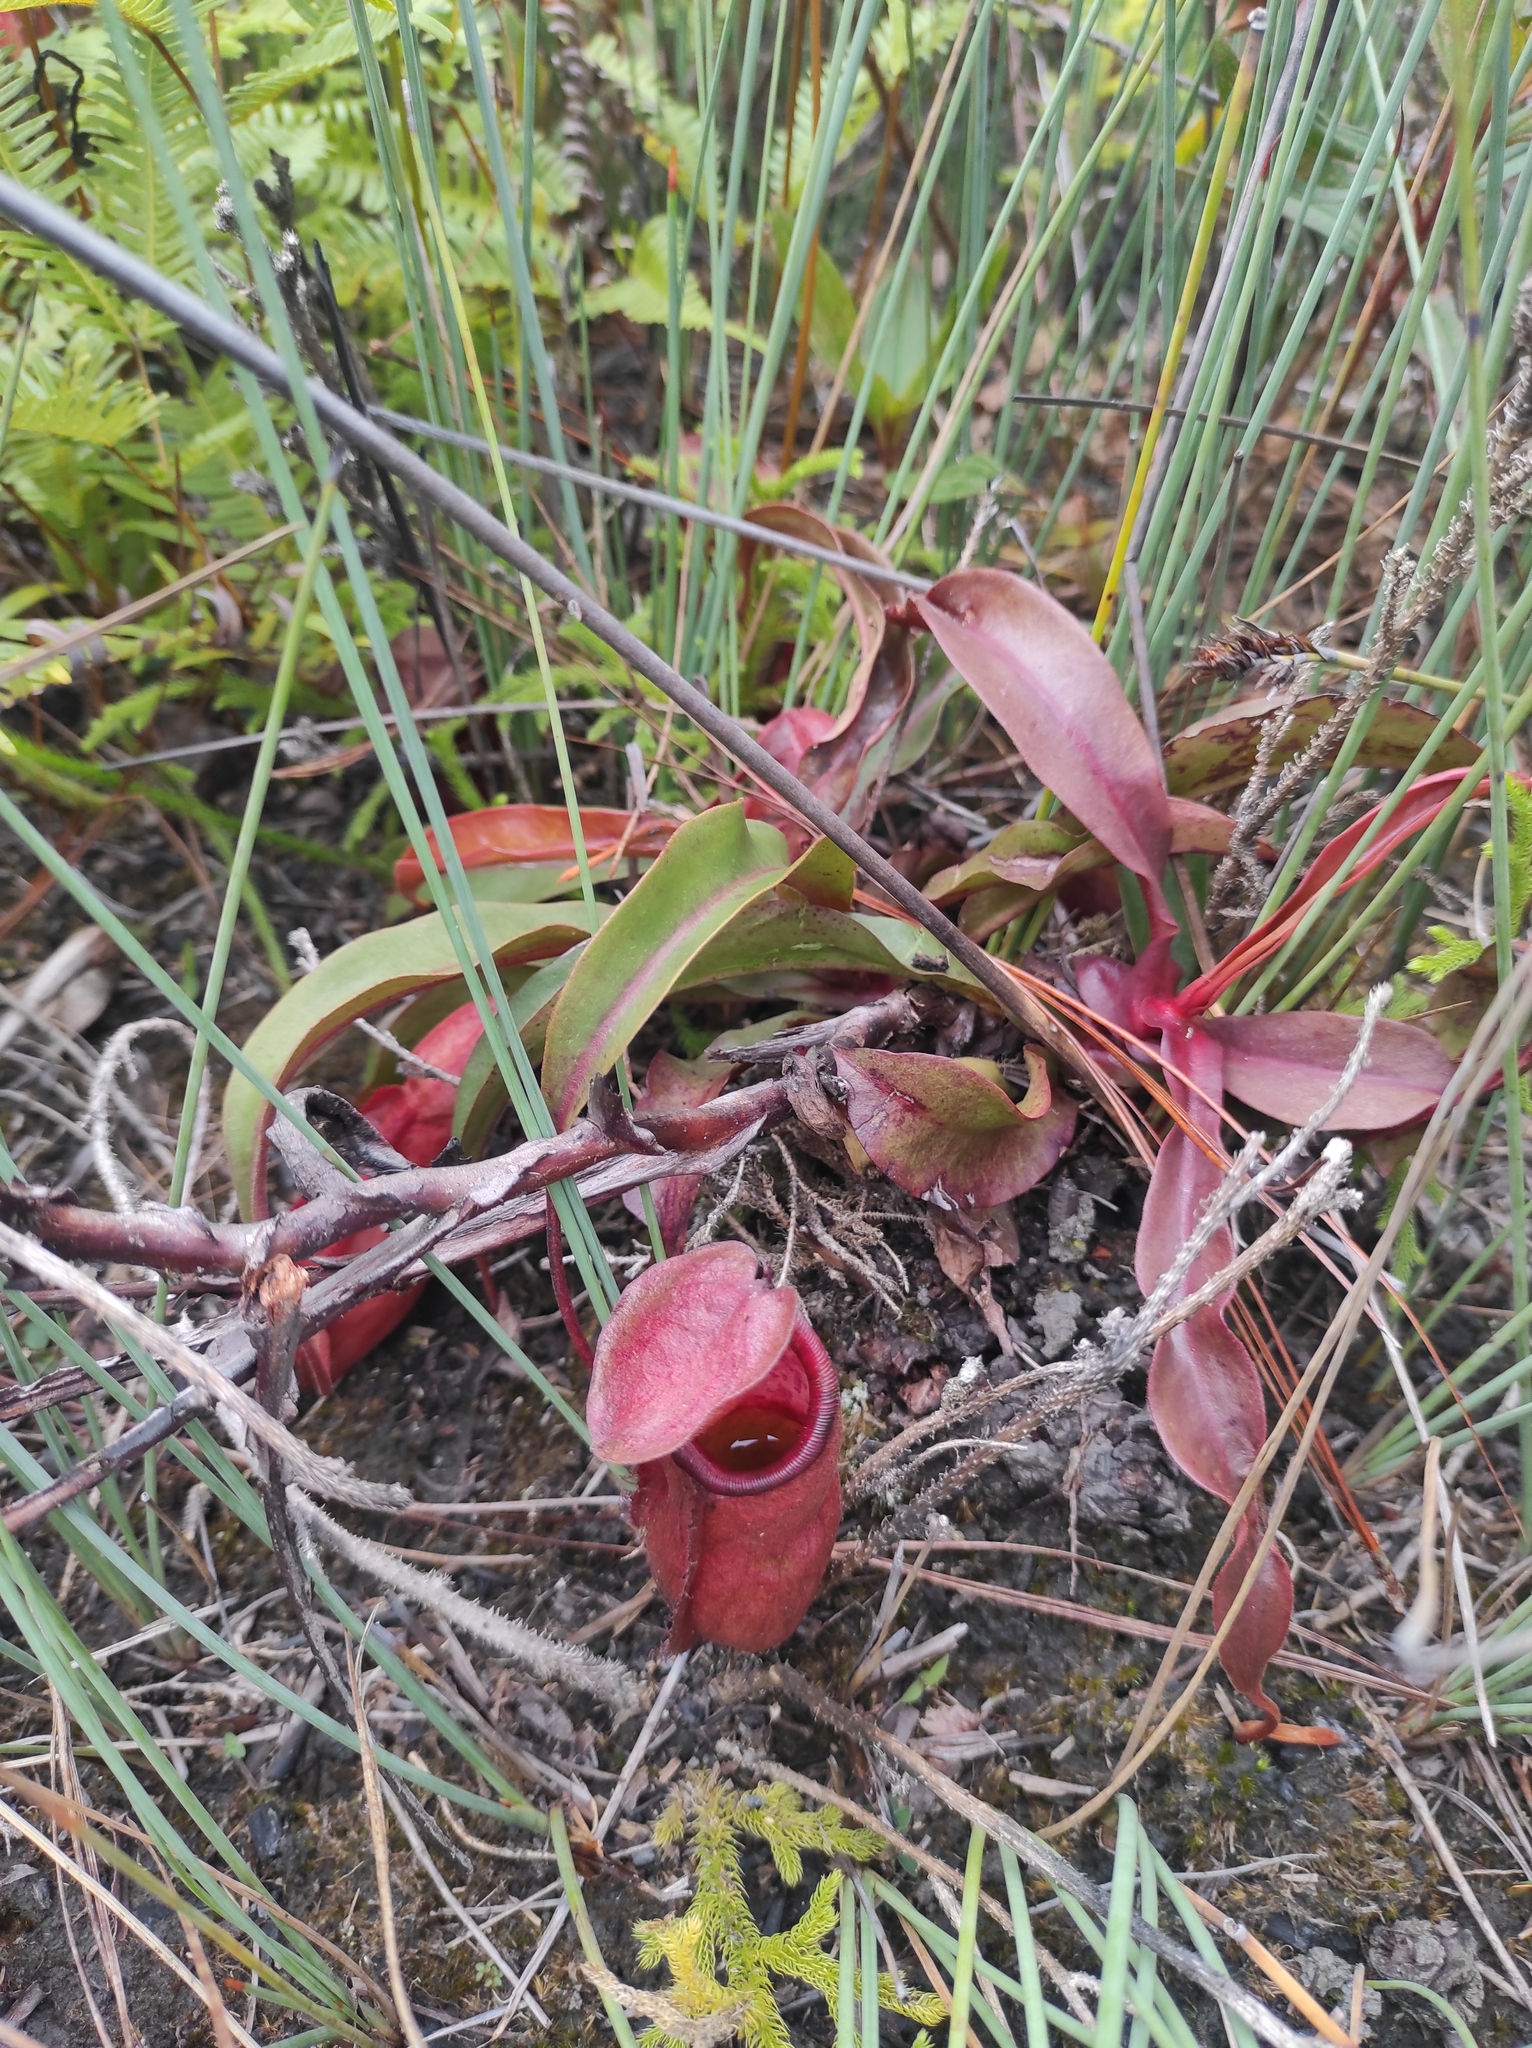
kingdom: Plantae
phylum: Tracheophyta
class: Magnoliopsida
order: Caryophyllales
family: Nepenthaceae
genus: Nepenthes
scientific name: Nepenthes smilesii
